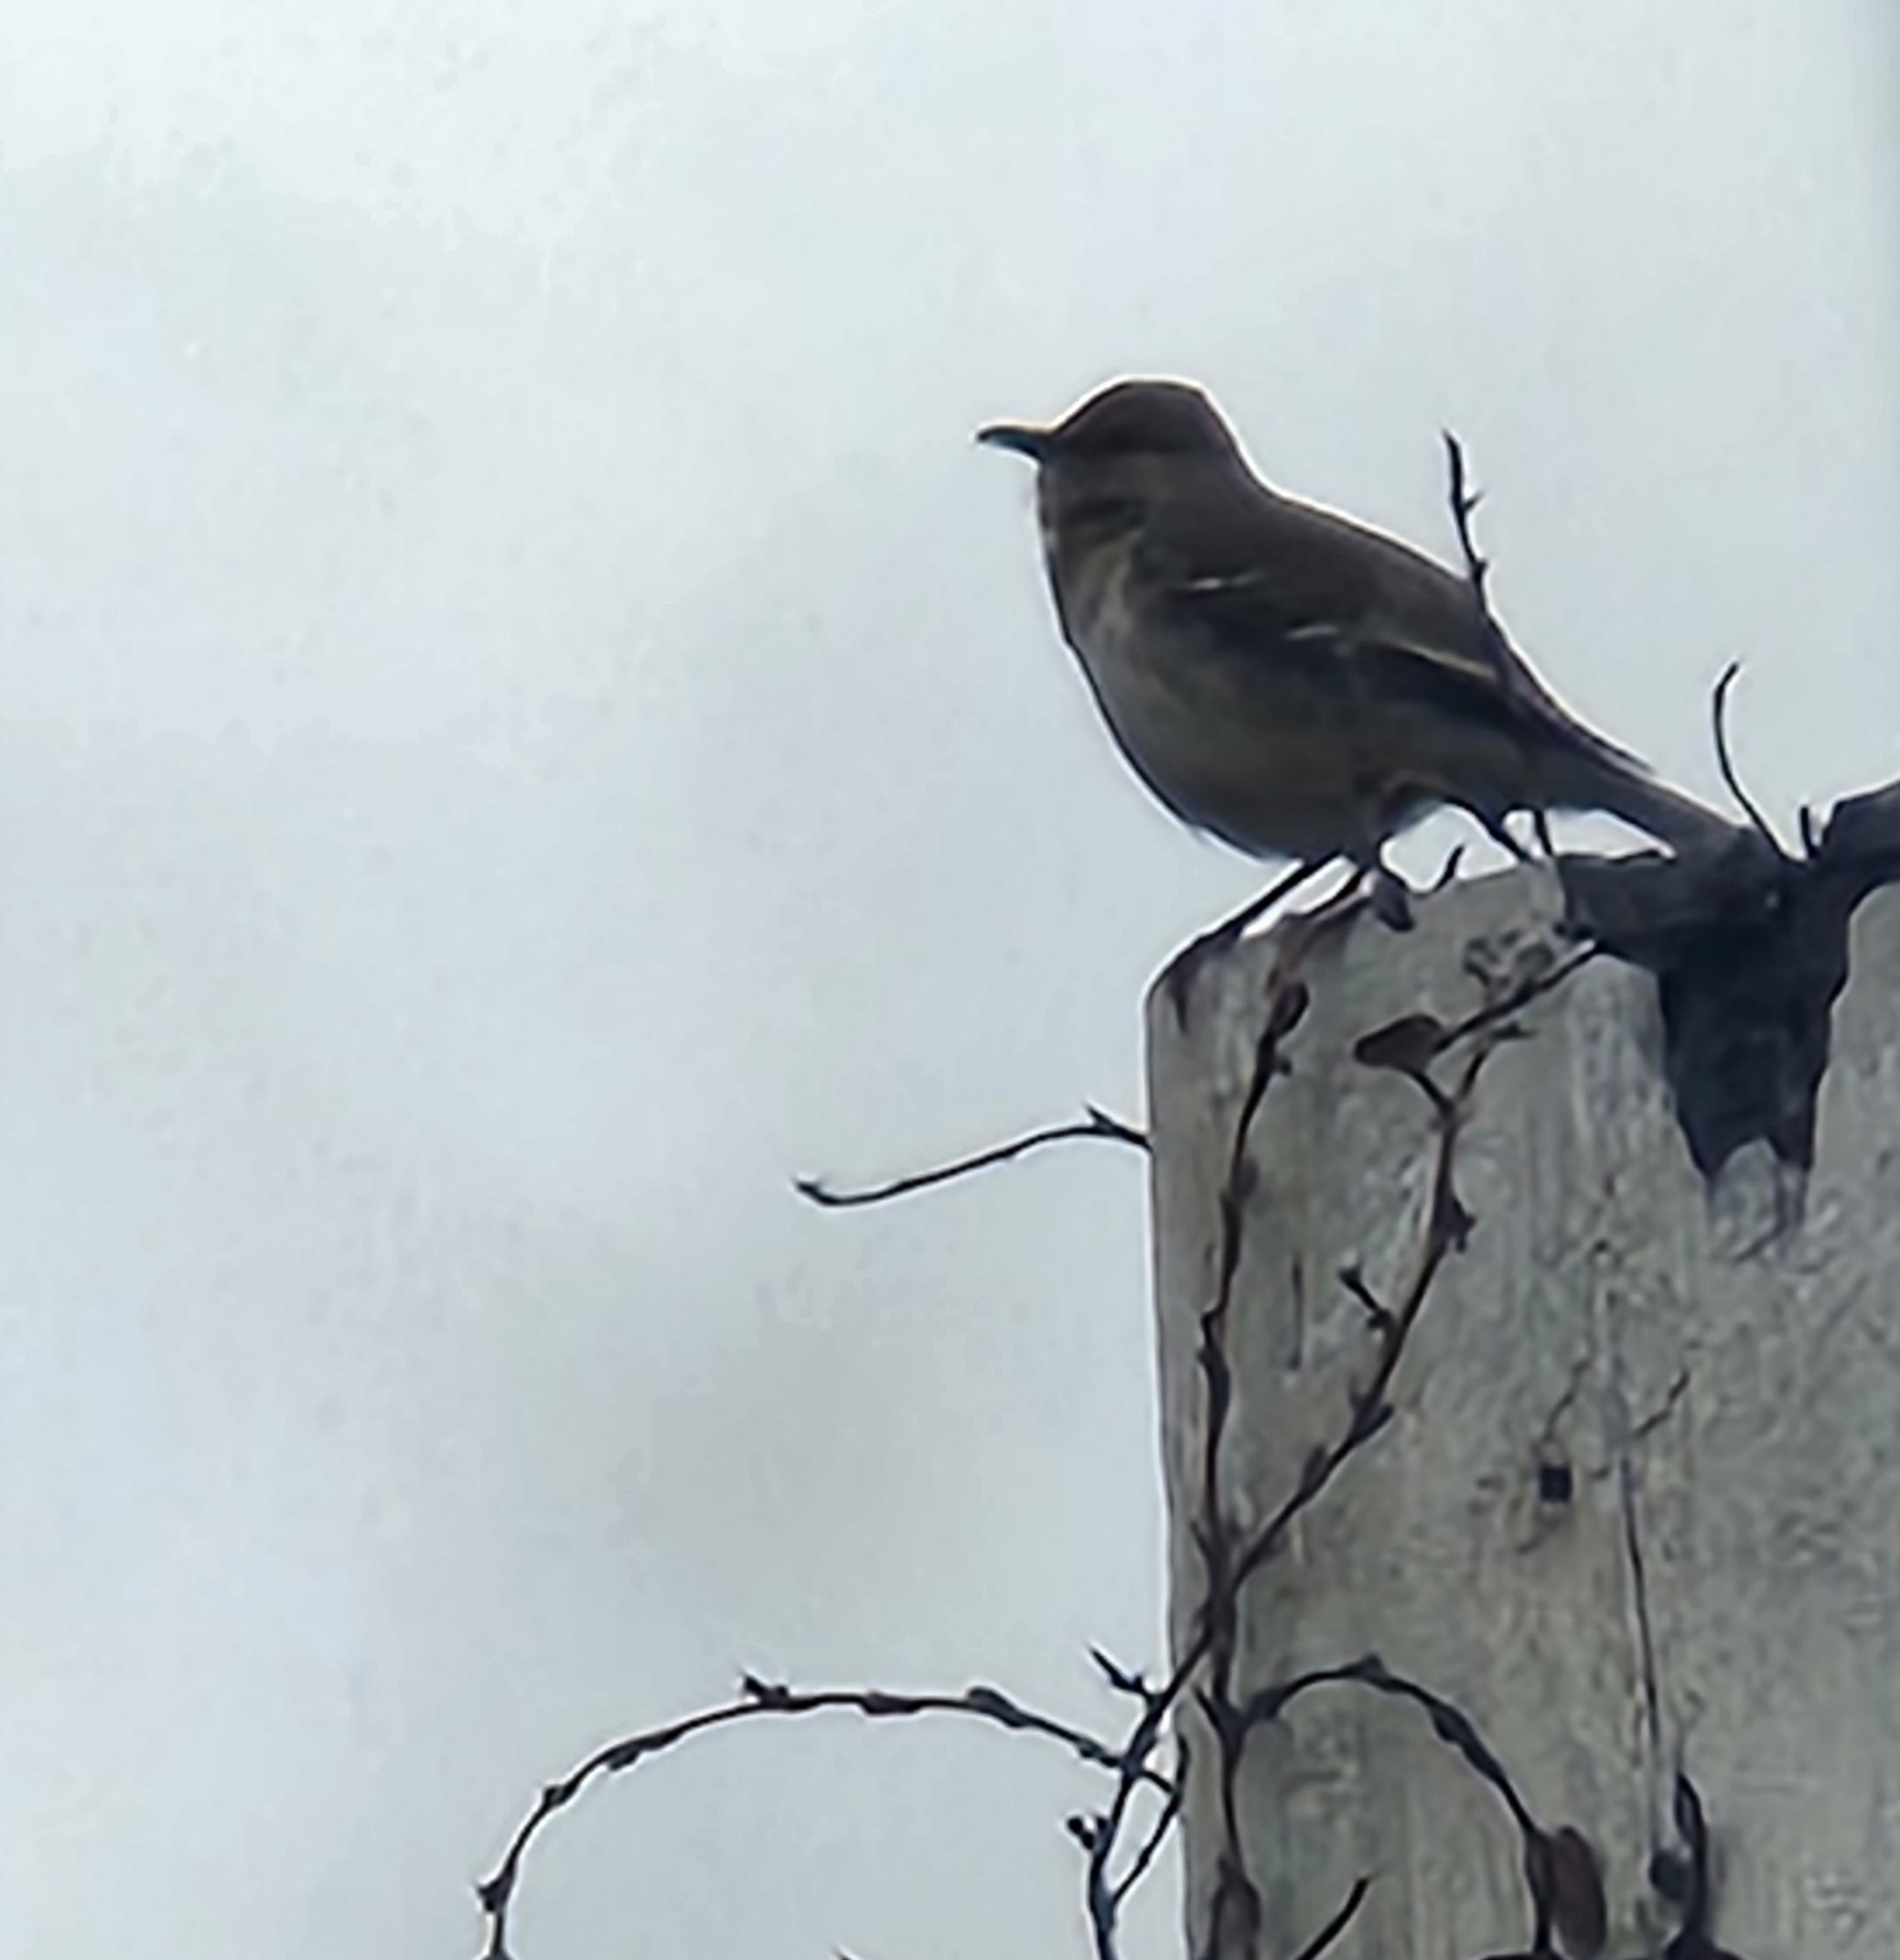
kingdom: Animalia
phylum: Chordata
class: Aves
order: Passeriformes
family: Mimidae
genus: Mimus
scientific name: Mimus polyglottos
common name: Northern mockingbird
